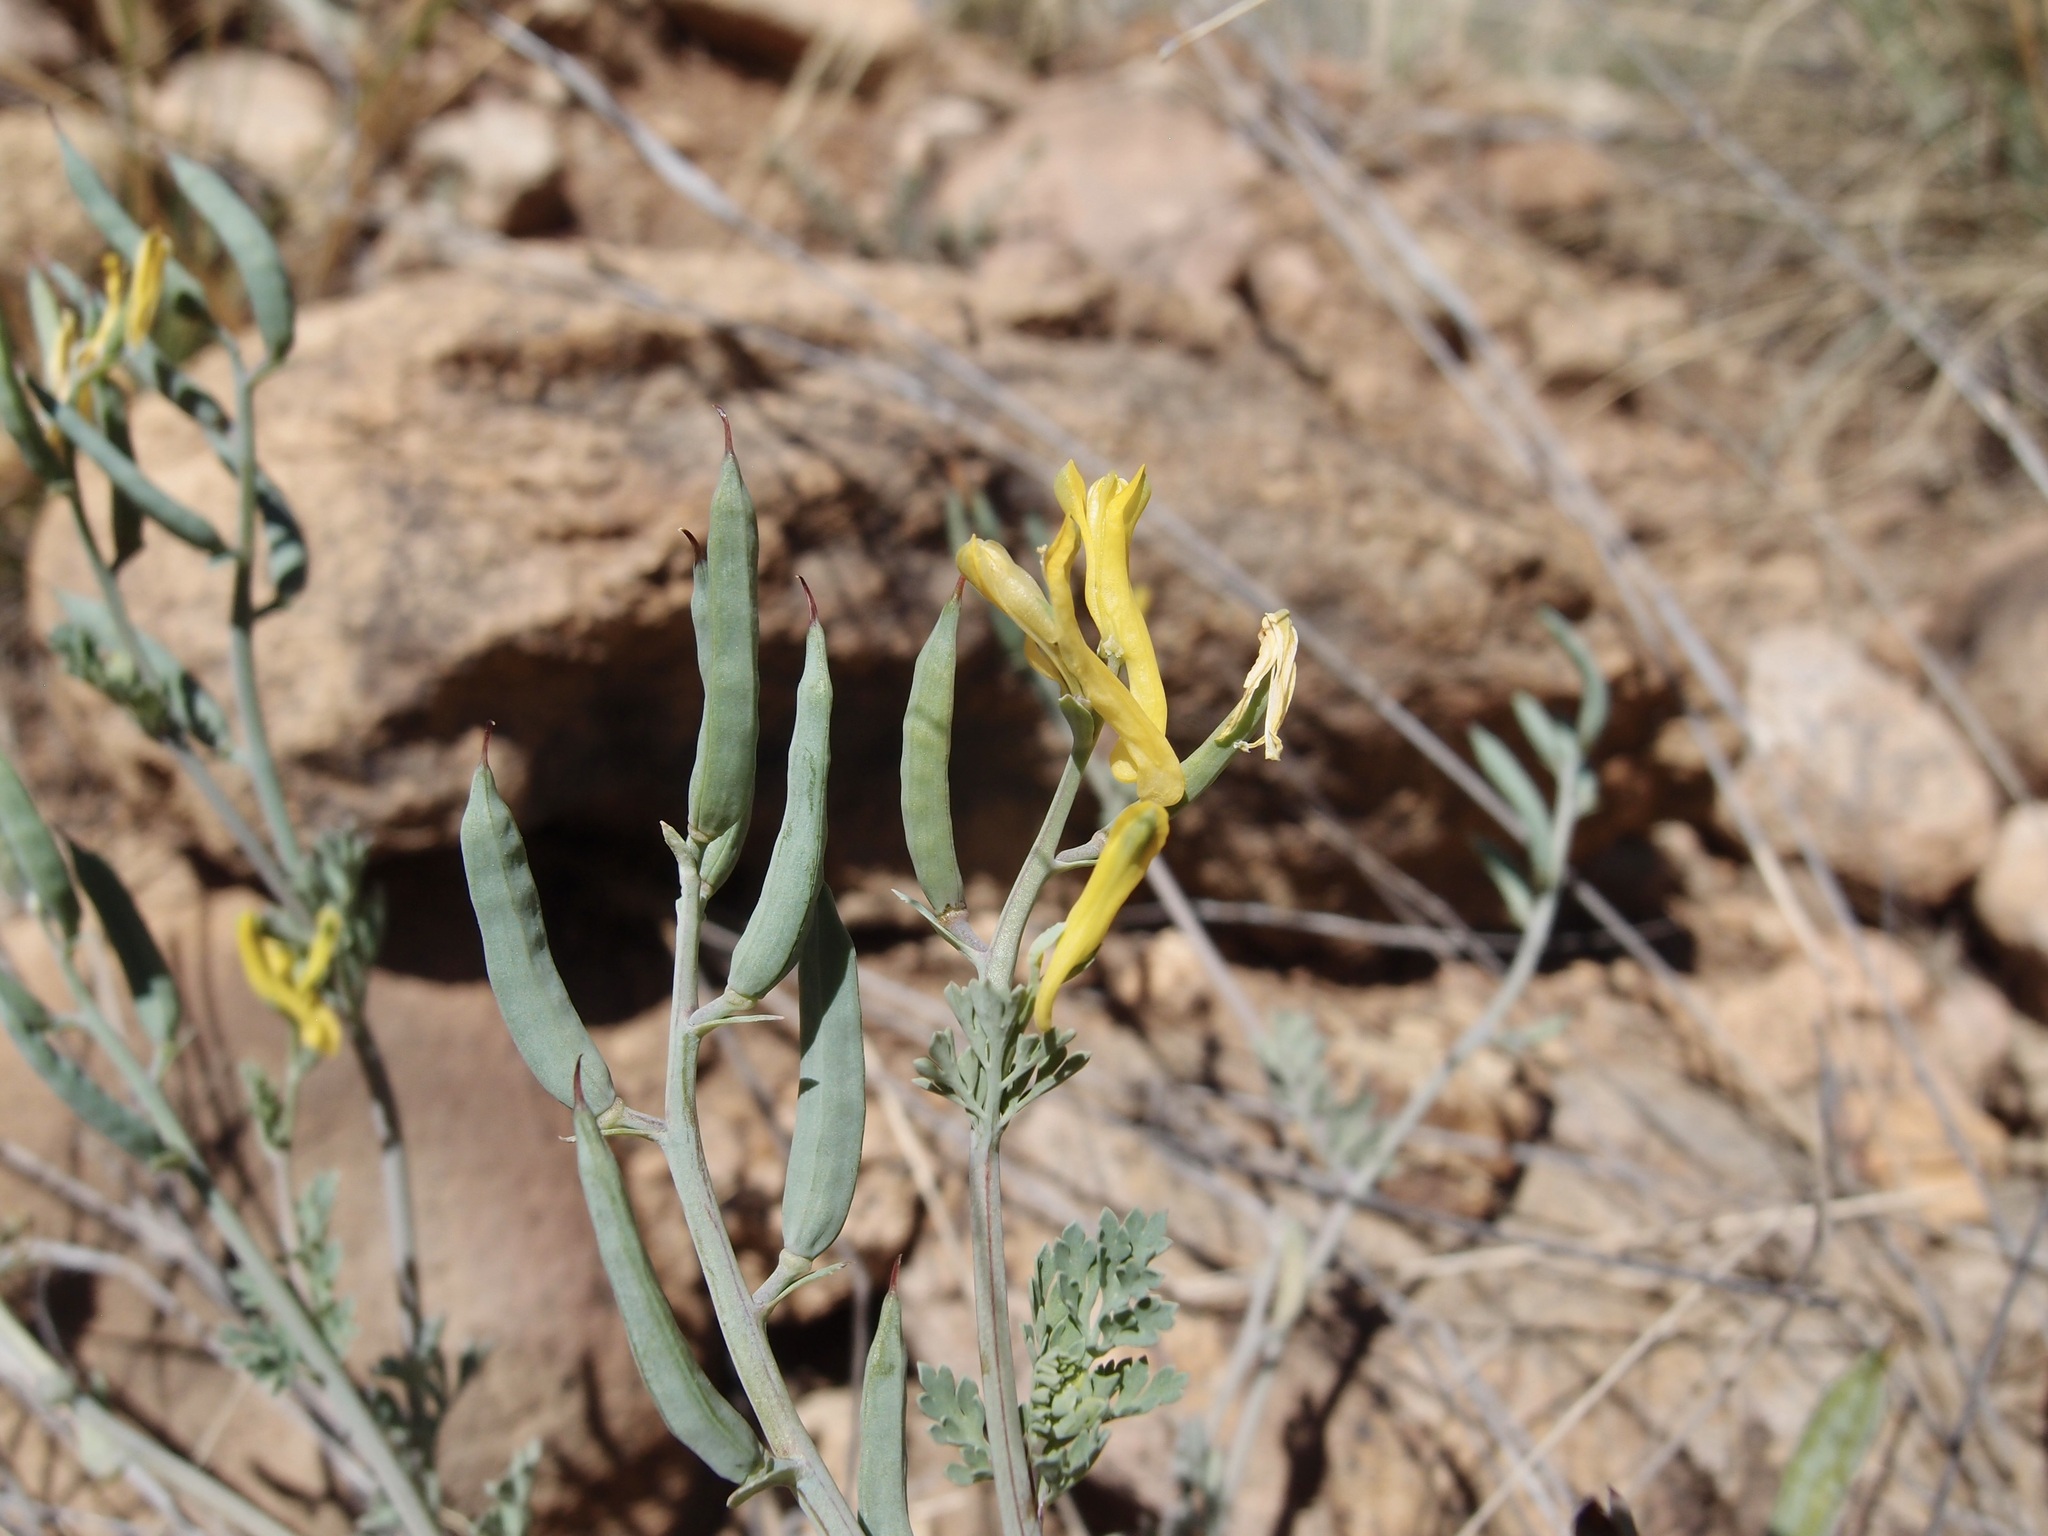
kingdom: Plantae
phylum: Tracheophyta
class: Magnoliopsida
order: Ranunculales
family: Papaveraceae
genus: Corydalis
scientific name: Corydalis aurea
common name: Golden corydalis
